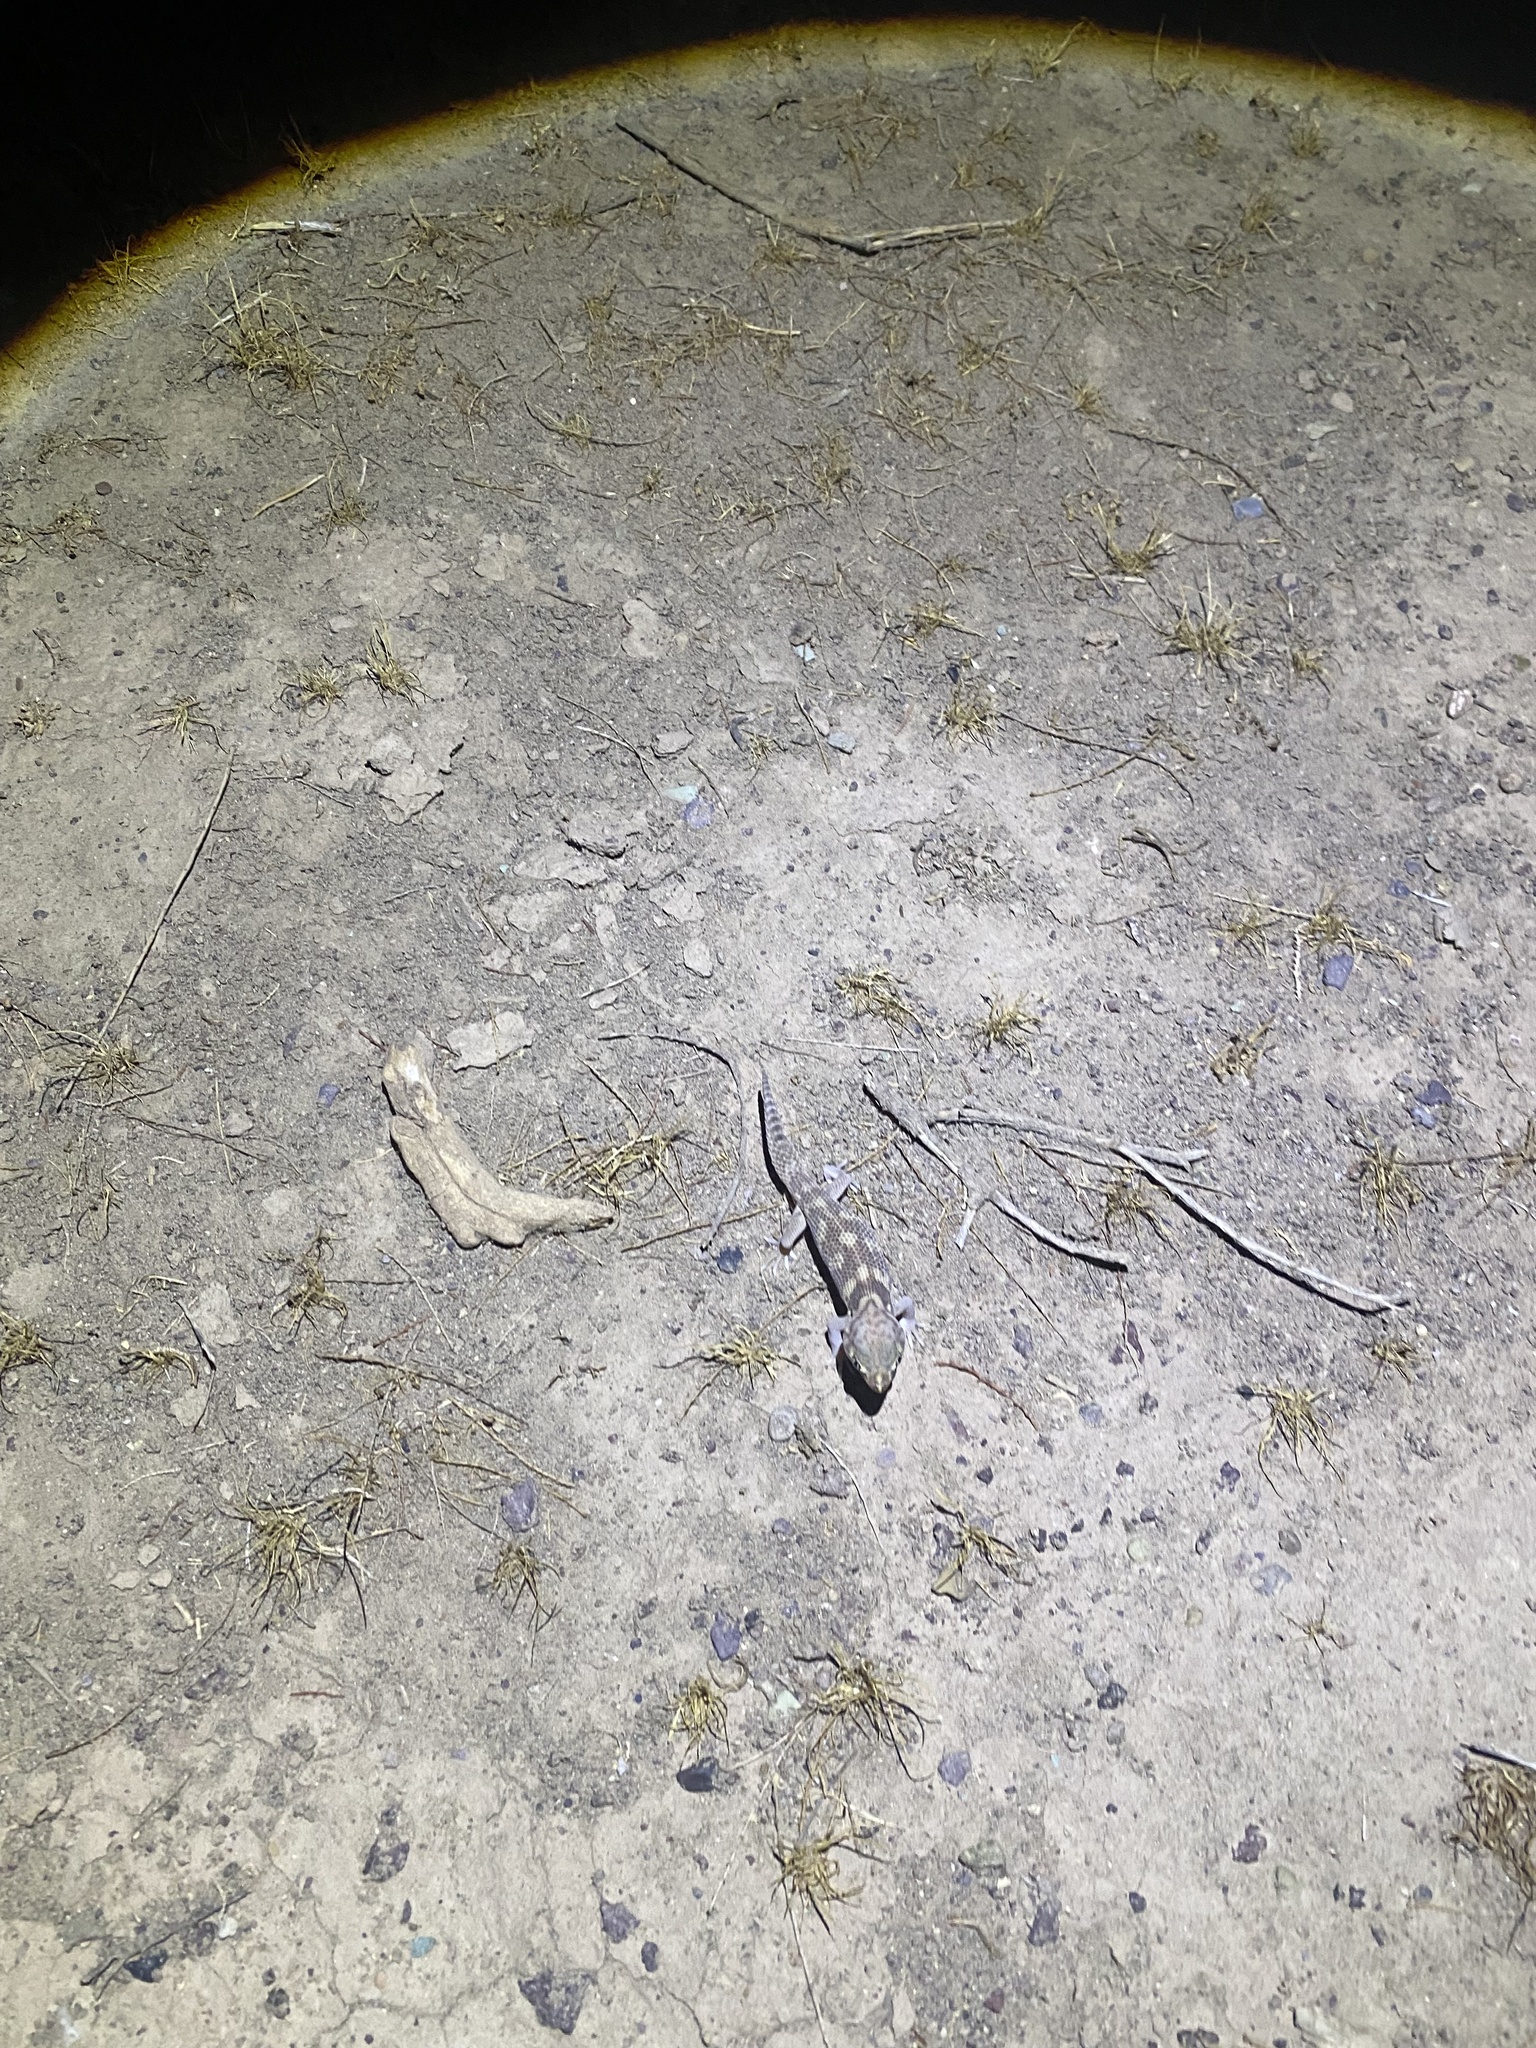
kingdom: Animalia
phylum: Chordata
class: Squamata
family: Sphaerodactylidae
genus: Teratoscincus
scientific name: Teratoscincus bedriagai
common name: Bedriaga's plate-tailed gecko
